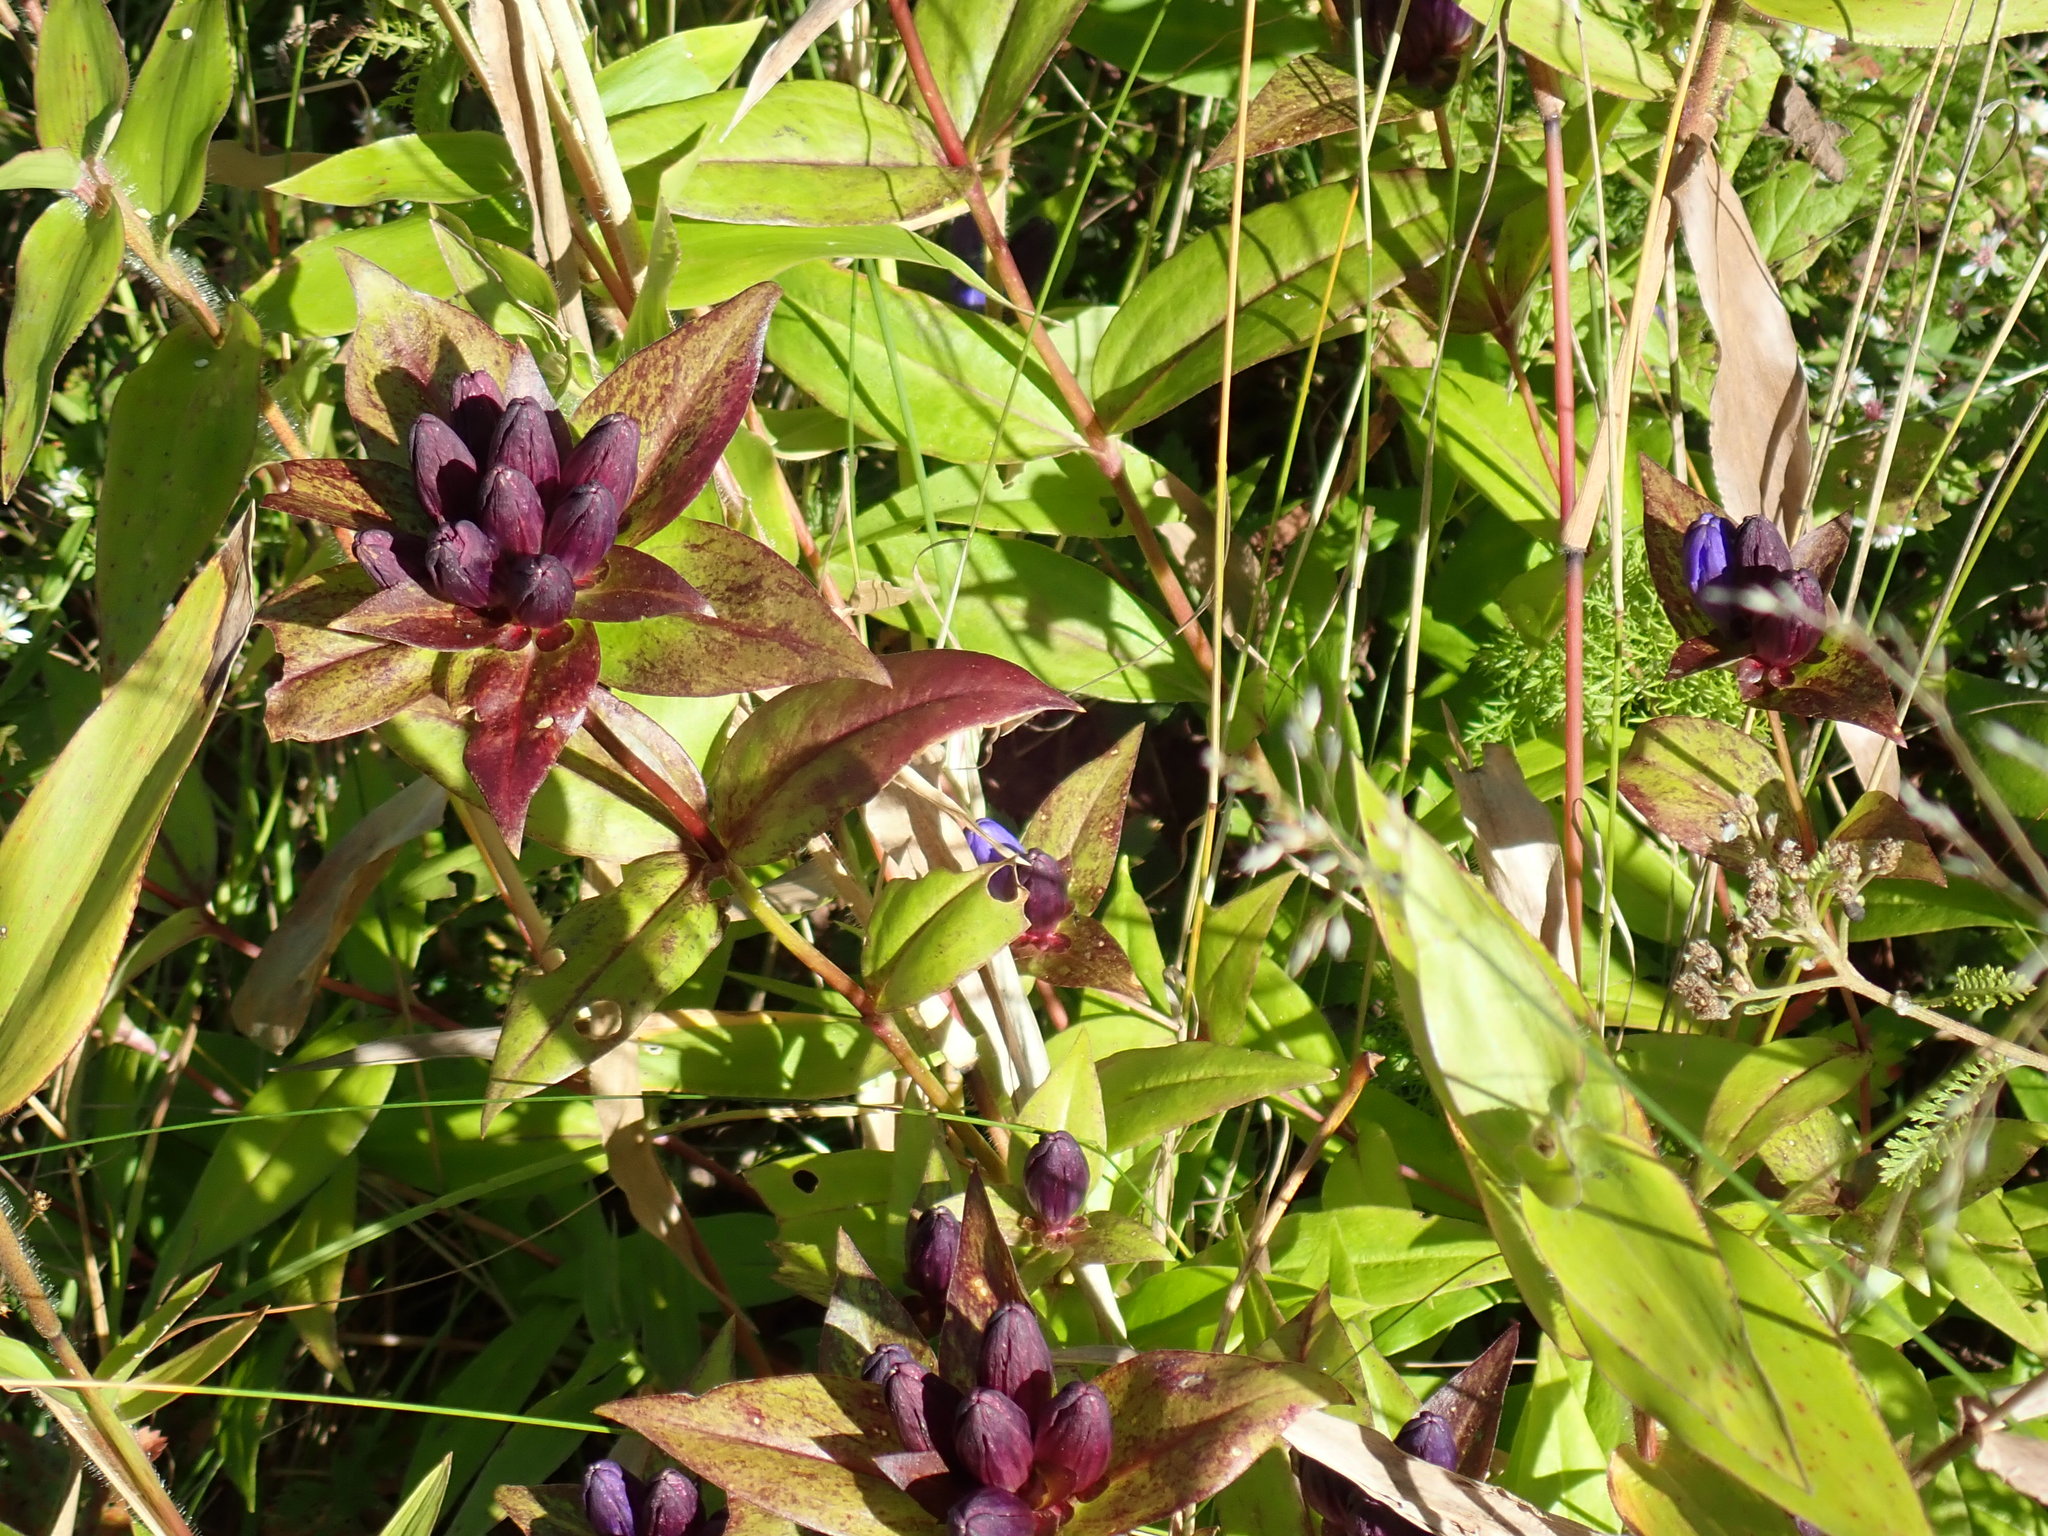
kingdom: Plantae
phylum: Tracheophyta
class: Magnoliopsida
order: Gentianales
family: Gentianaceae
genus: Gentiana
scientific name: Gentiana clausa
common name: Blind gentian
